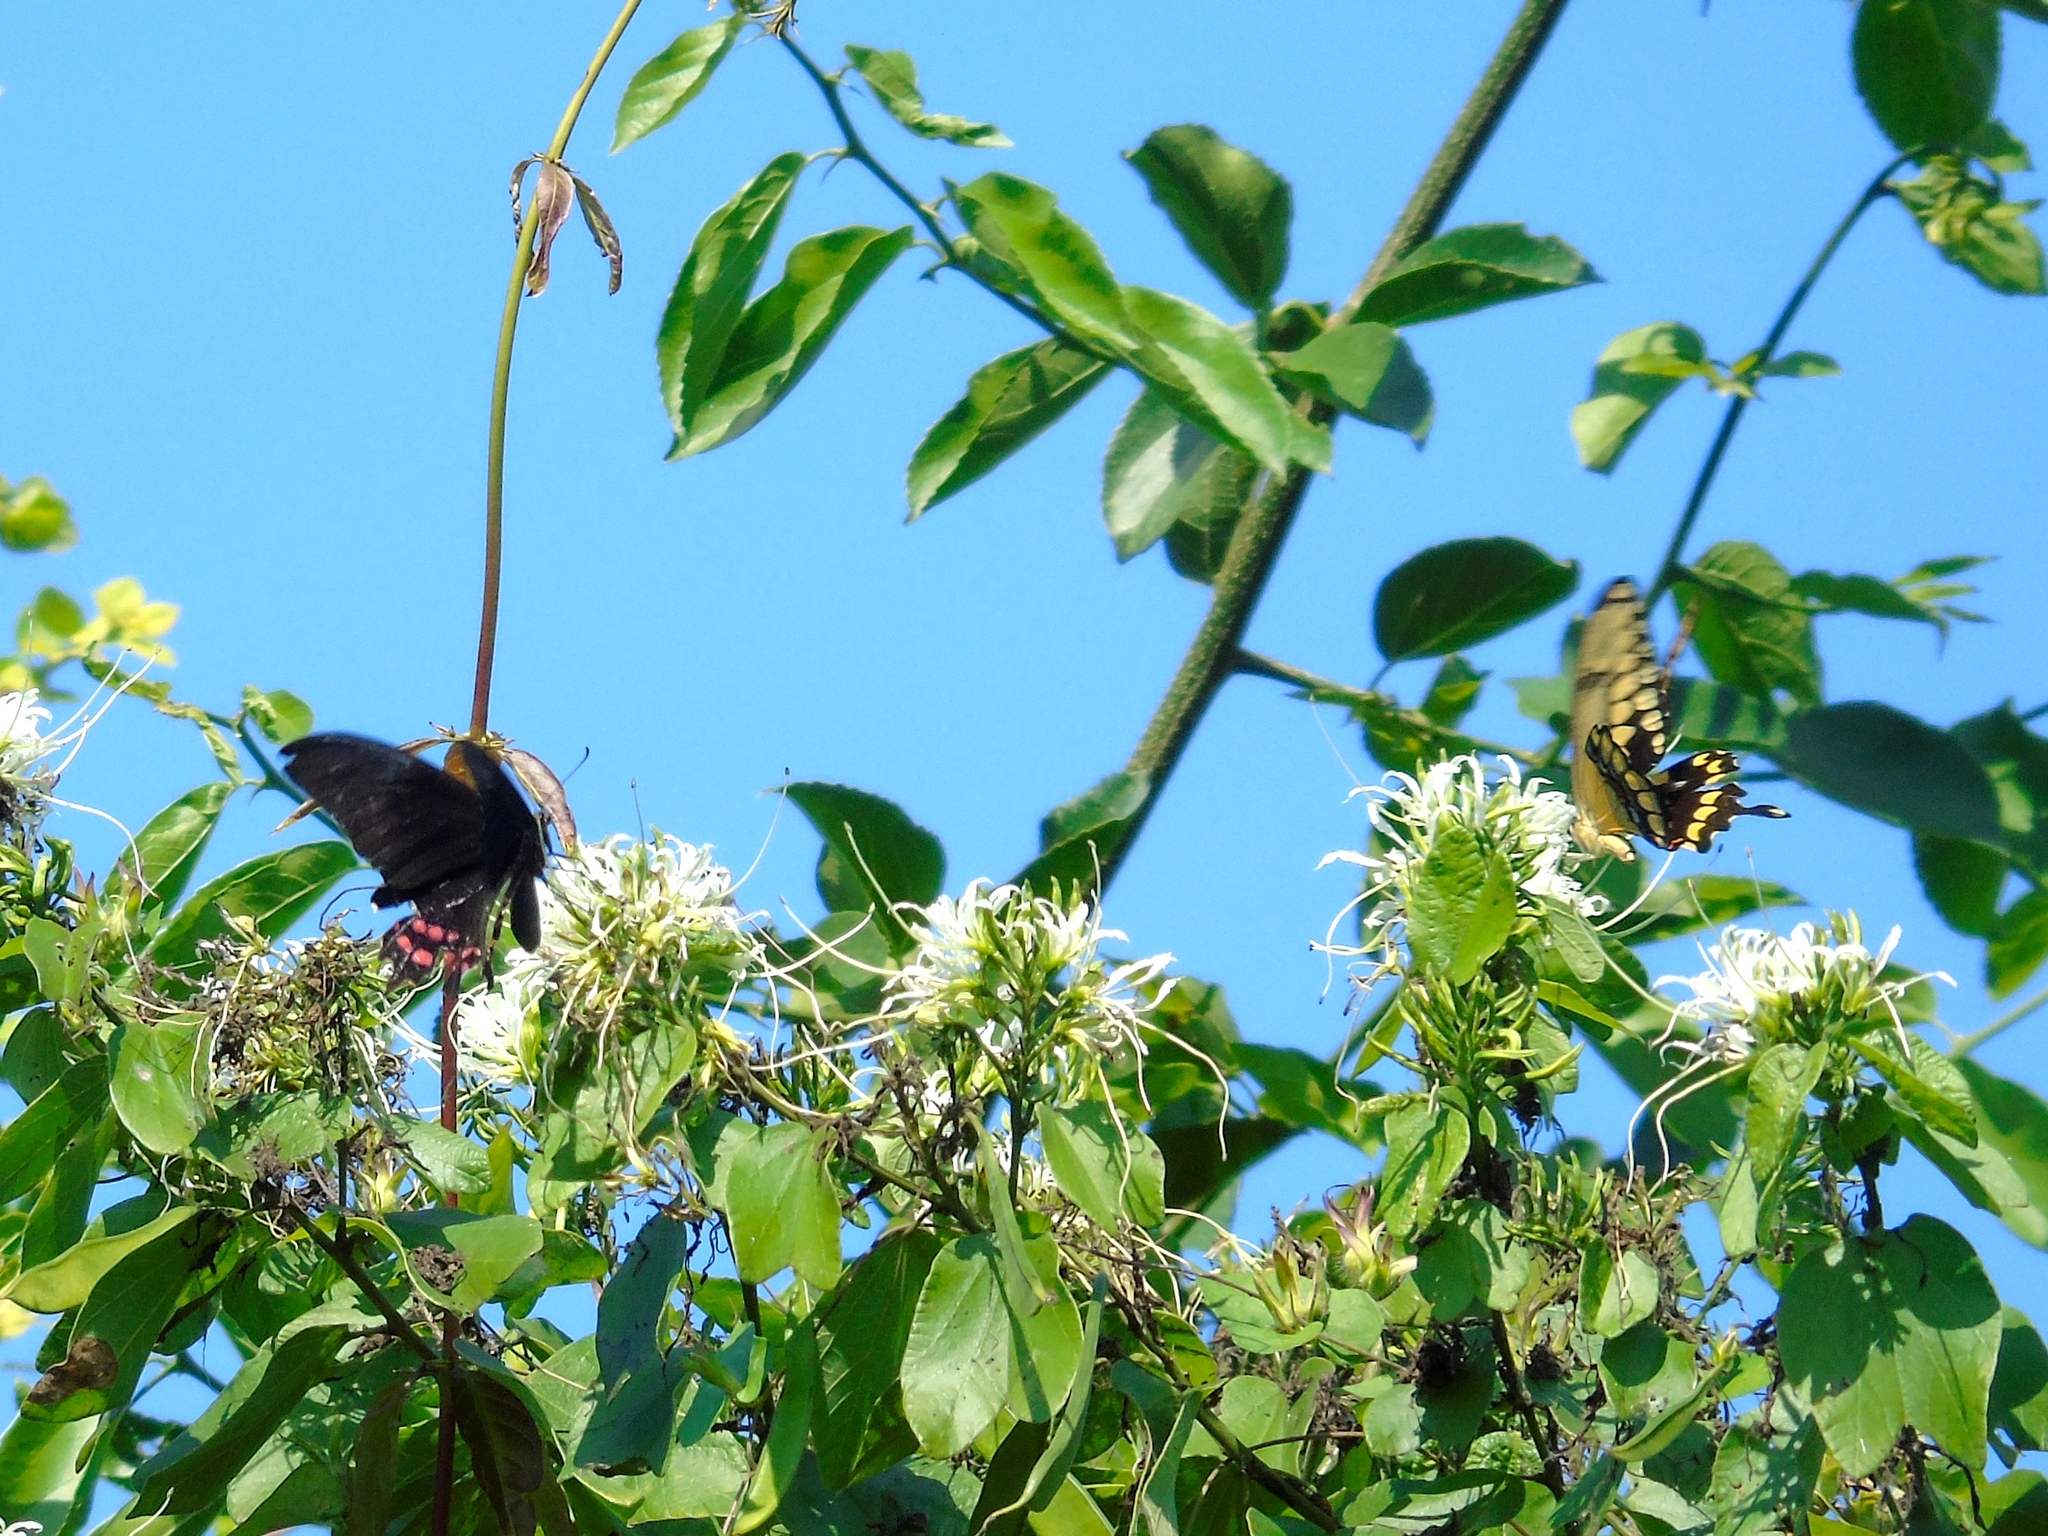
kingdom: Plantae
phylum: Tracheophyta
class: Magnoliopsida
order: Fabales
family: Fabaceae
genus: Bauhinia
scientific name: Bauhinia divaricata
